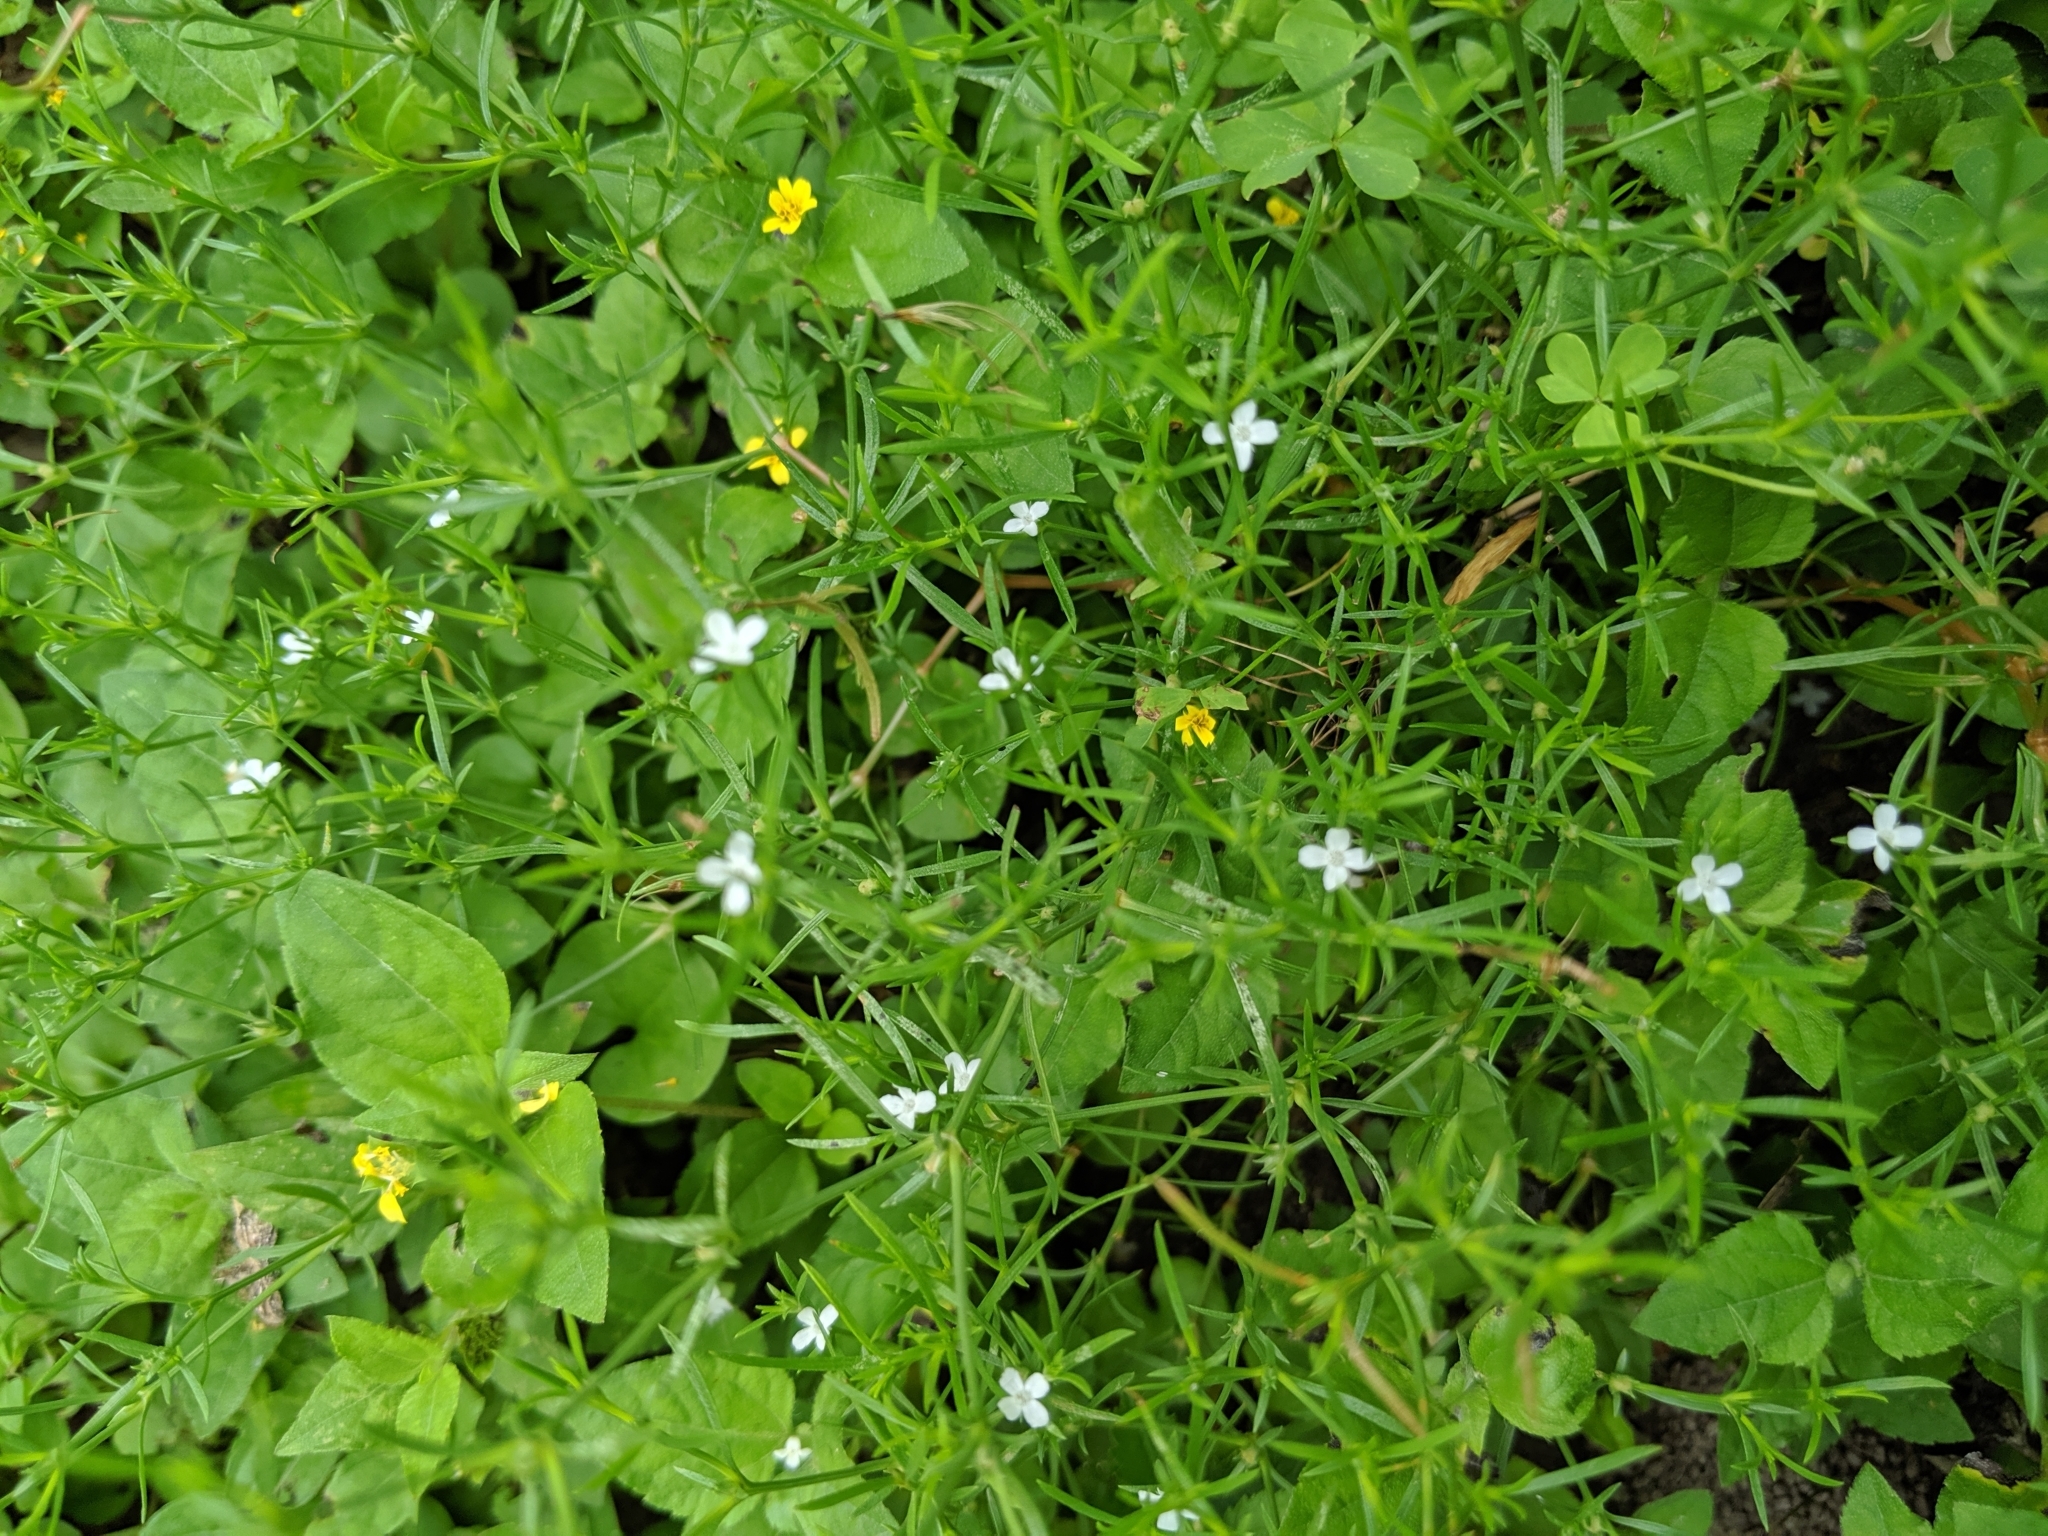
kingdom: Plantae
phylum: Tracheophyta
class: Magnoliopsida
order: Lamiales
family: Tetrachondraceae
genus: Polypremum
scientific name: Polypremum procumbens
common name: Juniper-leaf
